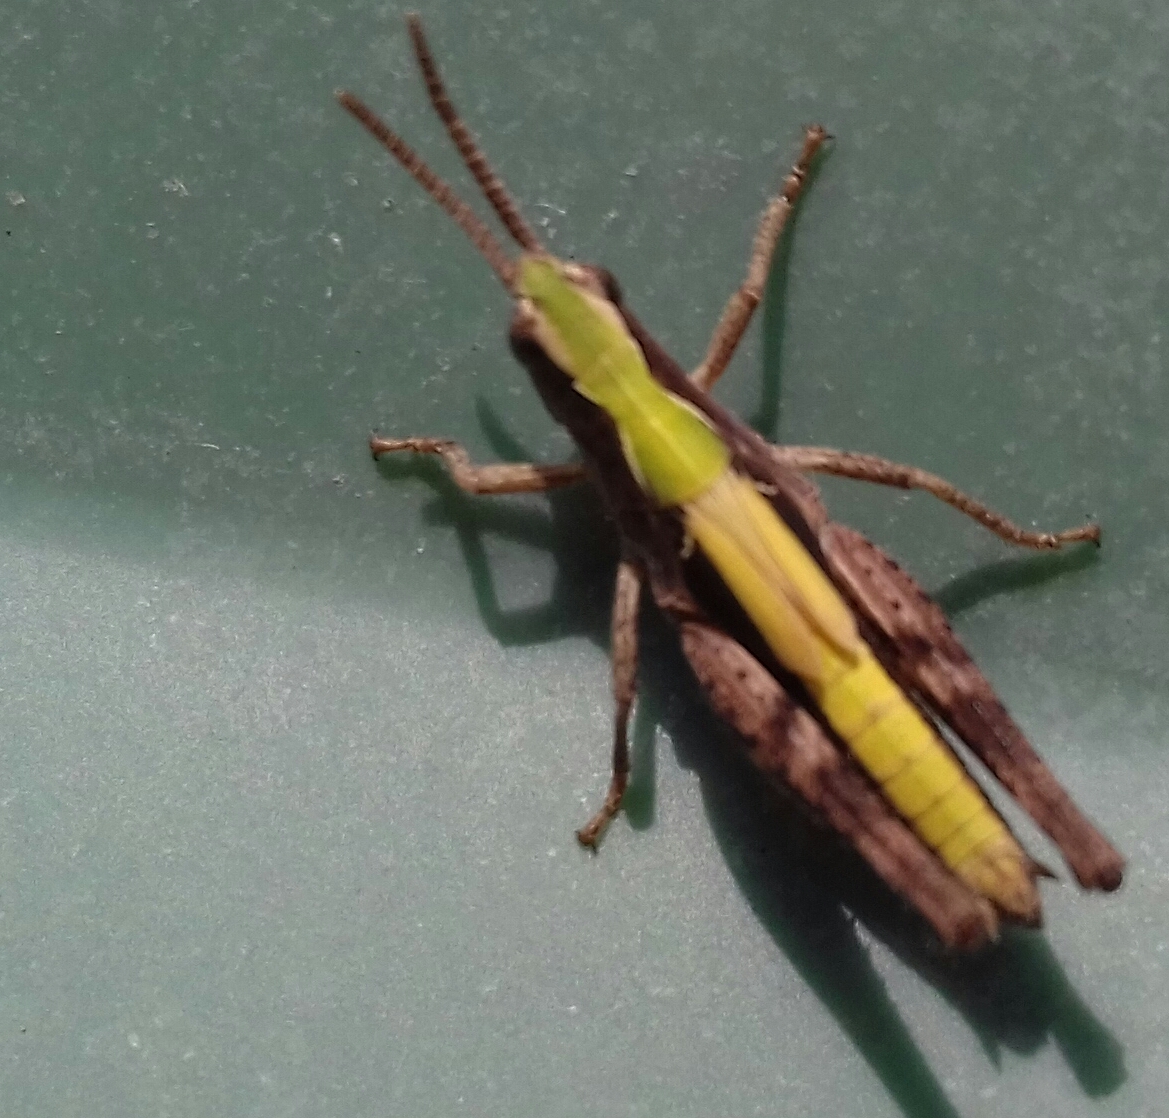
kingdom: Animalia
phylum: Arthropoda
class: Insecta
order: Orthoptera
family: Acrididae
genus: Chorthippus
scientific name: Chorthippus brunneus
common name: Field grasshopper
